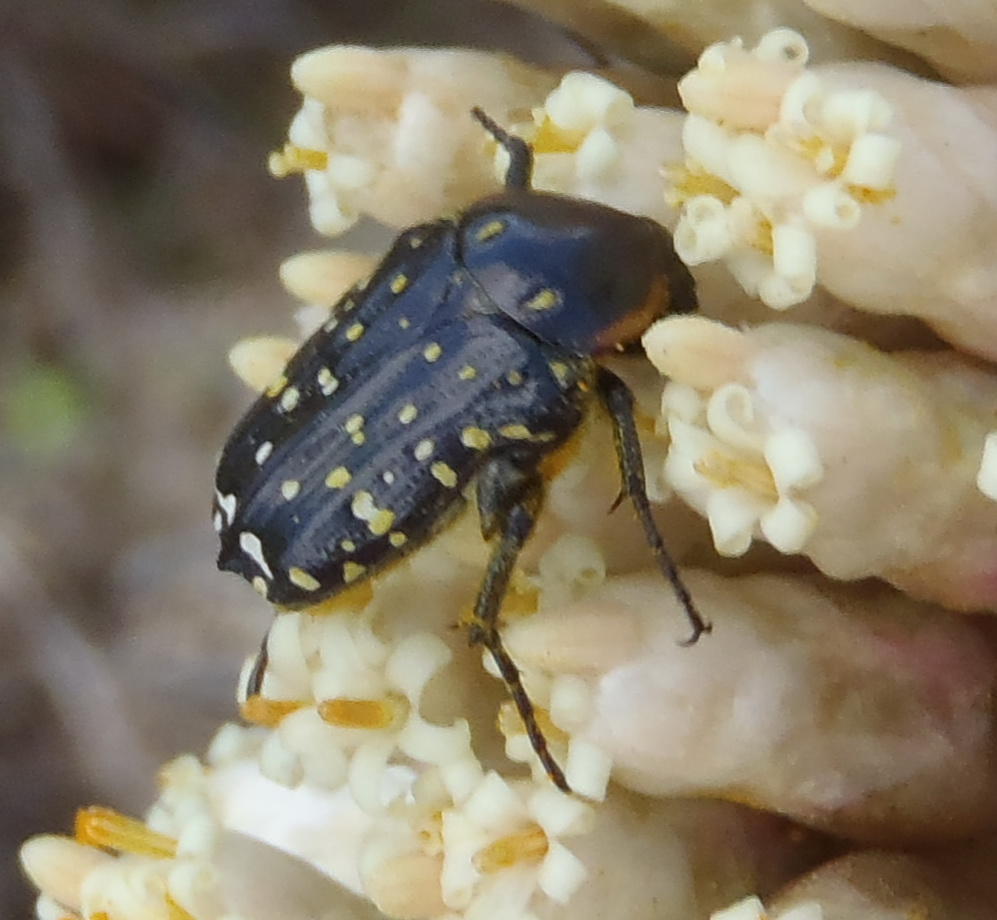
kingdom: Animalia
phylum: Arthropoda
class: Insecta
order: Coleoptera
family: Scarabaeidae
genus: Oxythyrea
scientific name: Oxythyrea
